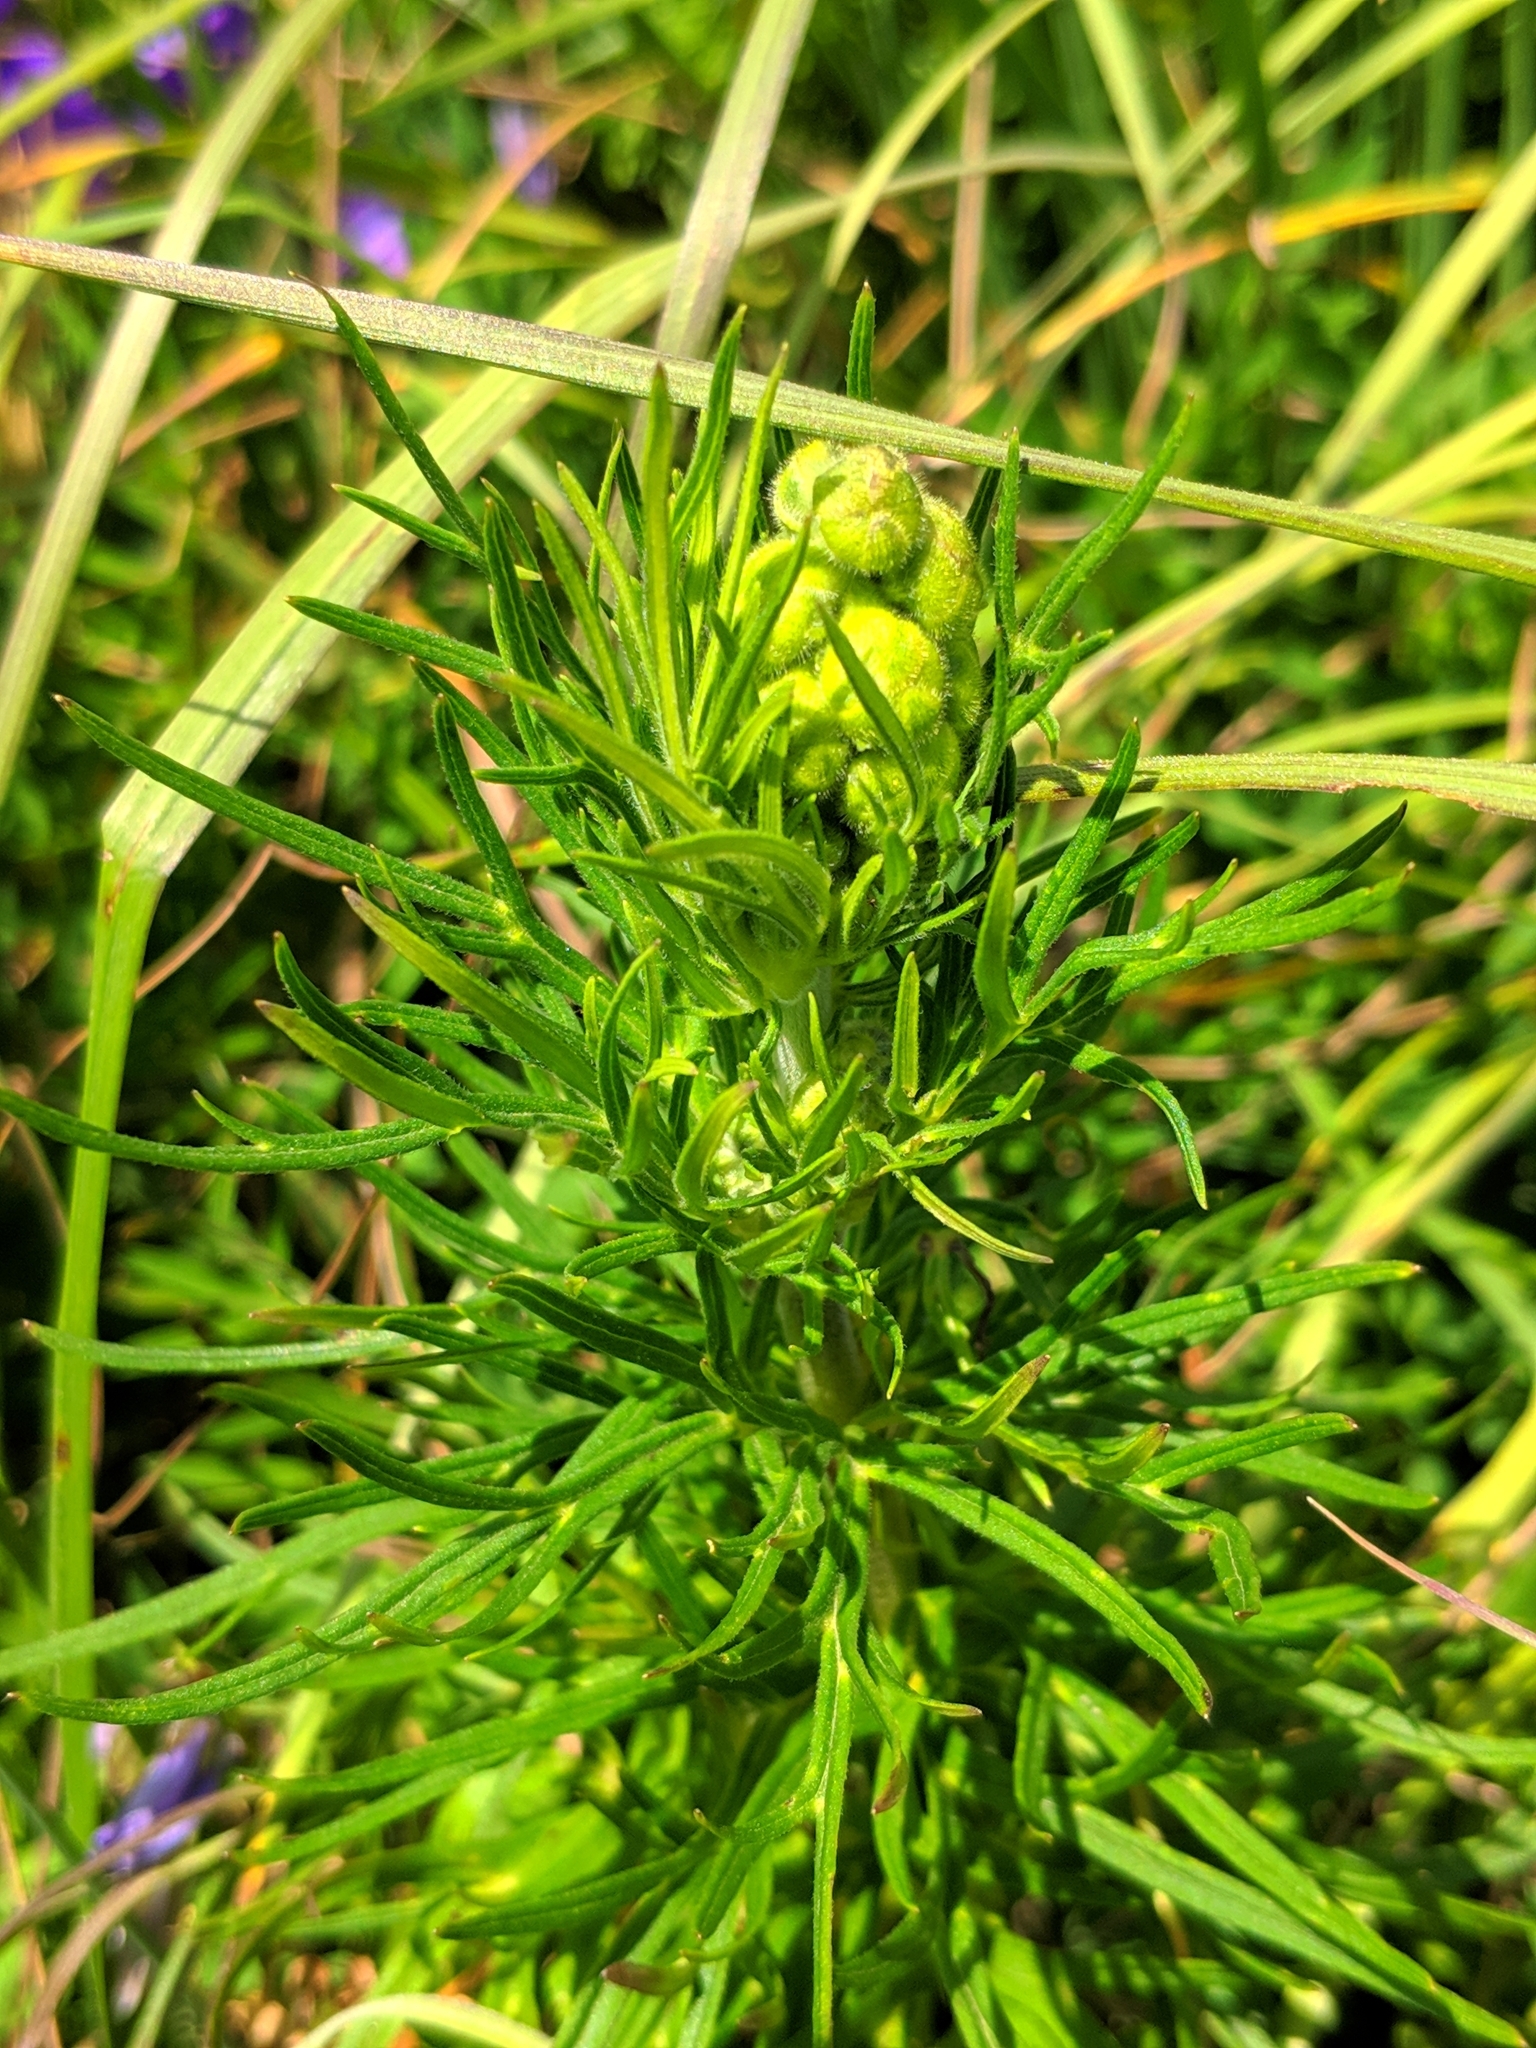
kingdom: Plantae
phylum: Tracheophyta
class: Magnoliopsida
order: Ranunculales
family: Ranunculaceae
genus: Aconitum
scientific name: Aconitum anthora
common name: Yellow monkshood
